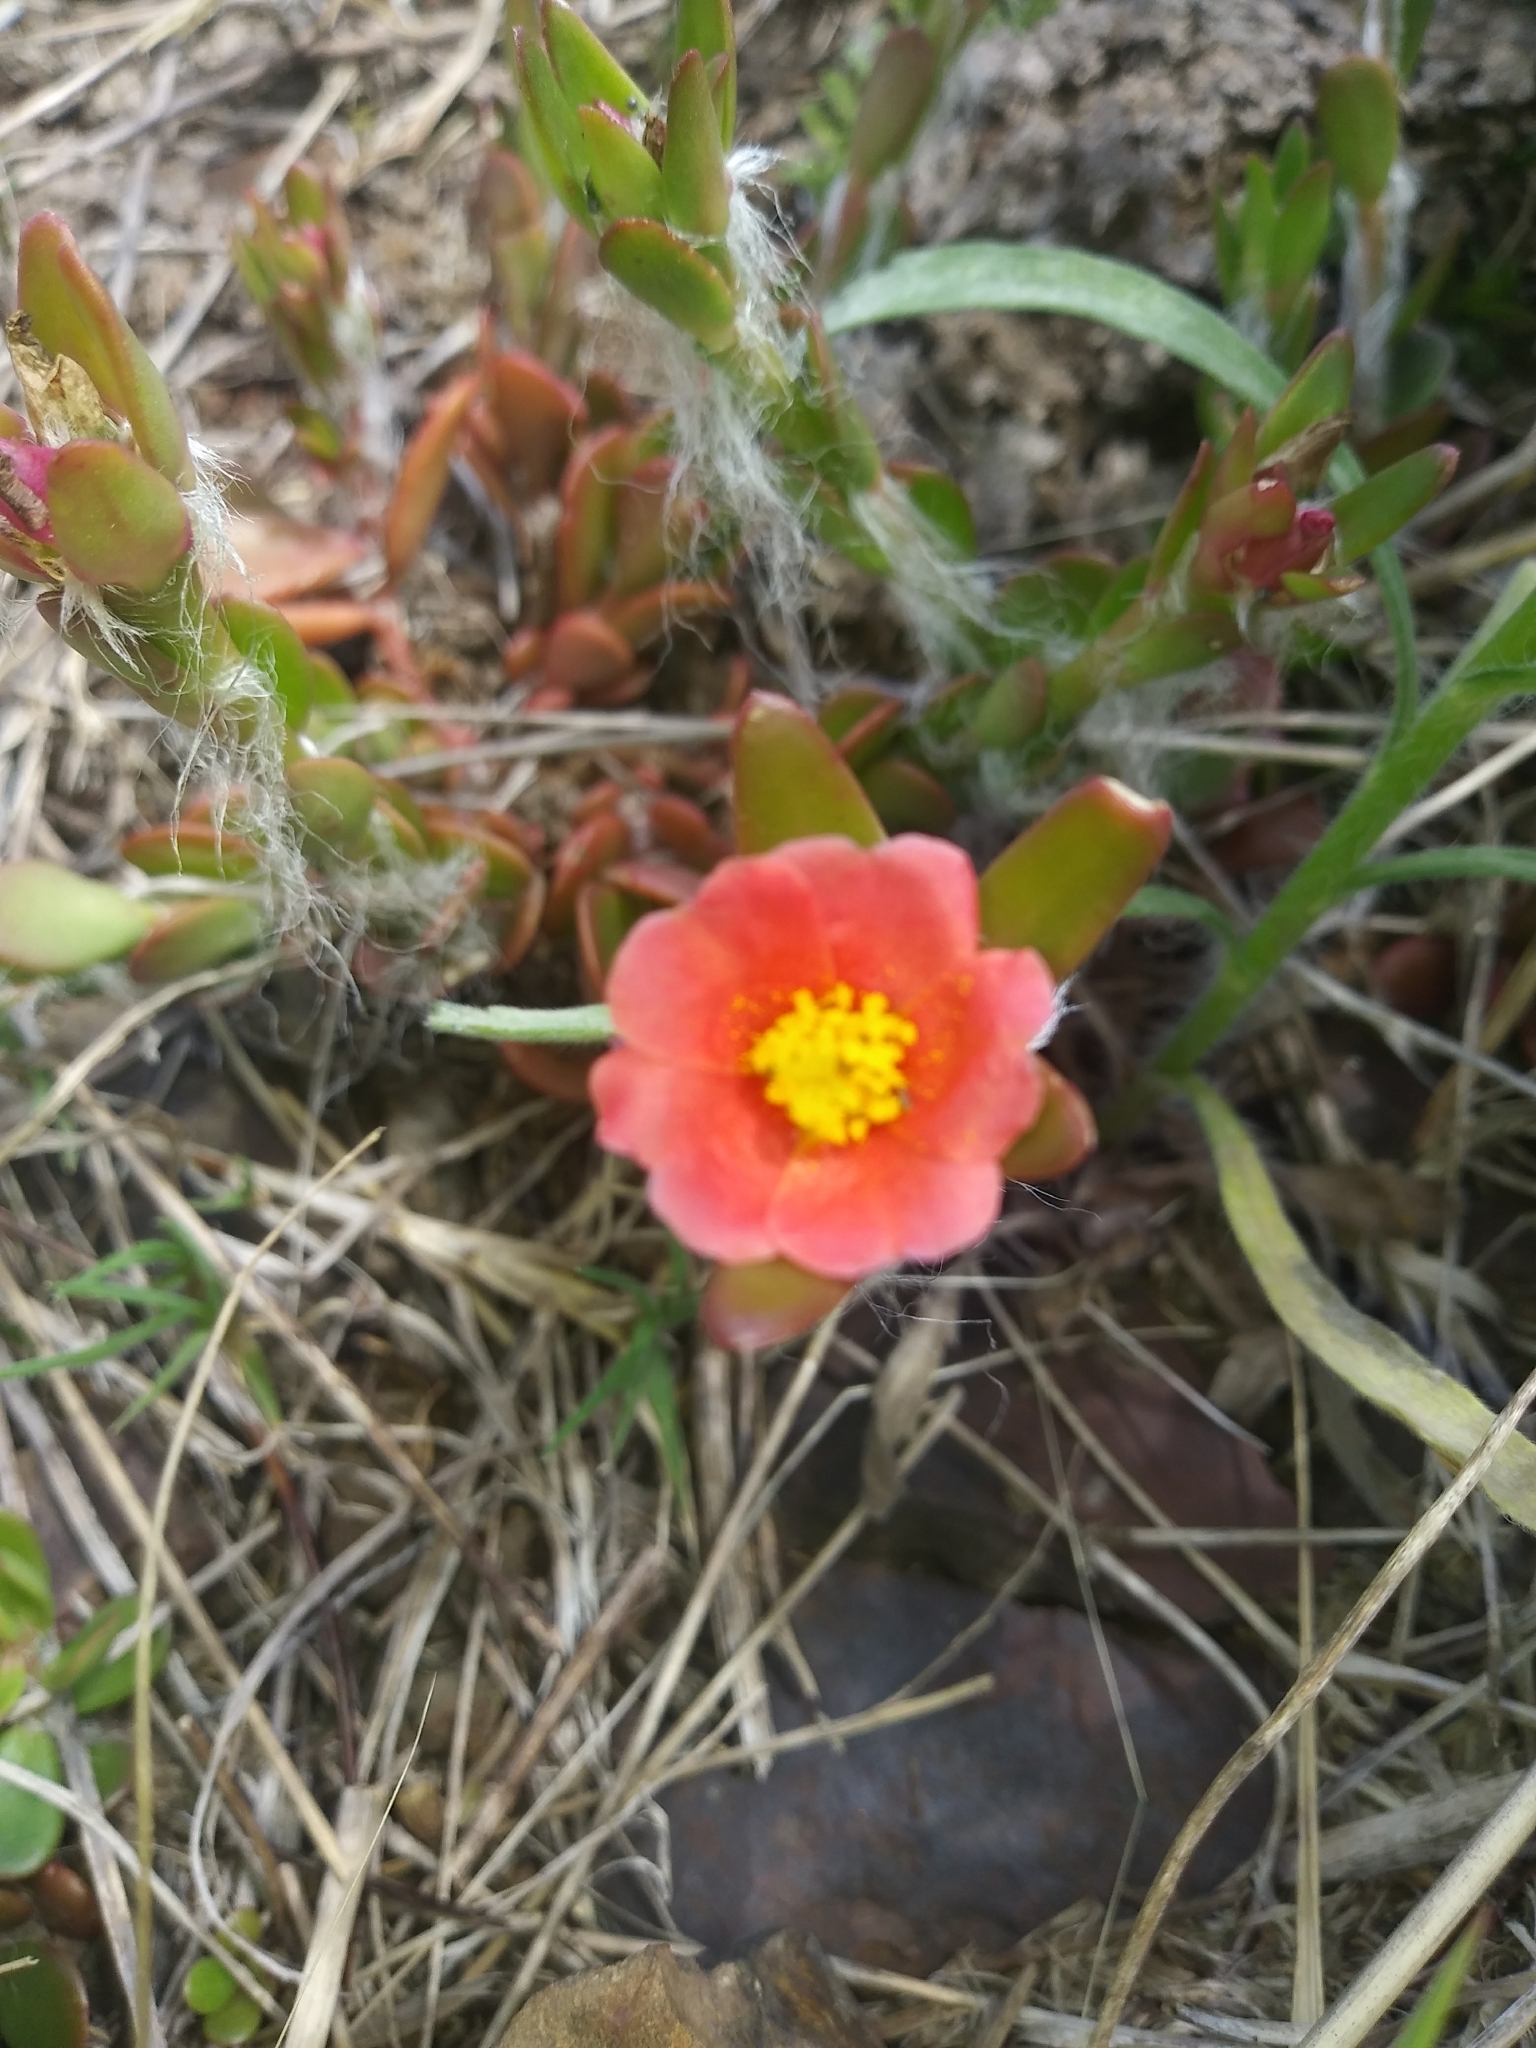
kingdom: Plantae
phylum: Tracheophyta
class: Magnoliopsida
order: Caryophyllales
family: Portulacaceae
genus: Portulaca
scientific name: Portulaca cryptopetala
